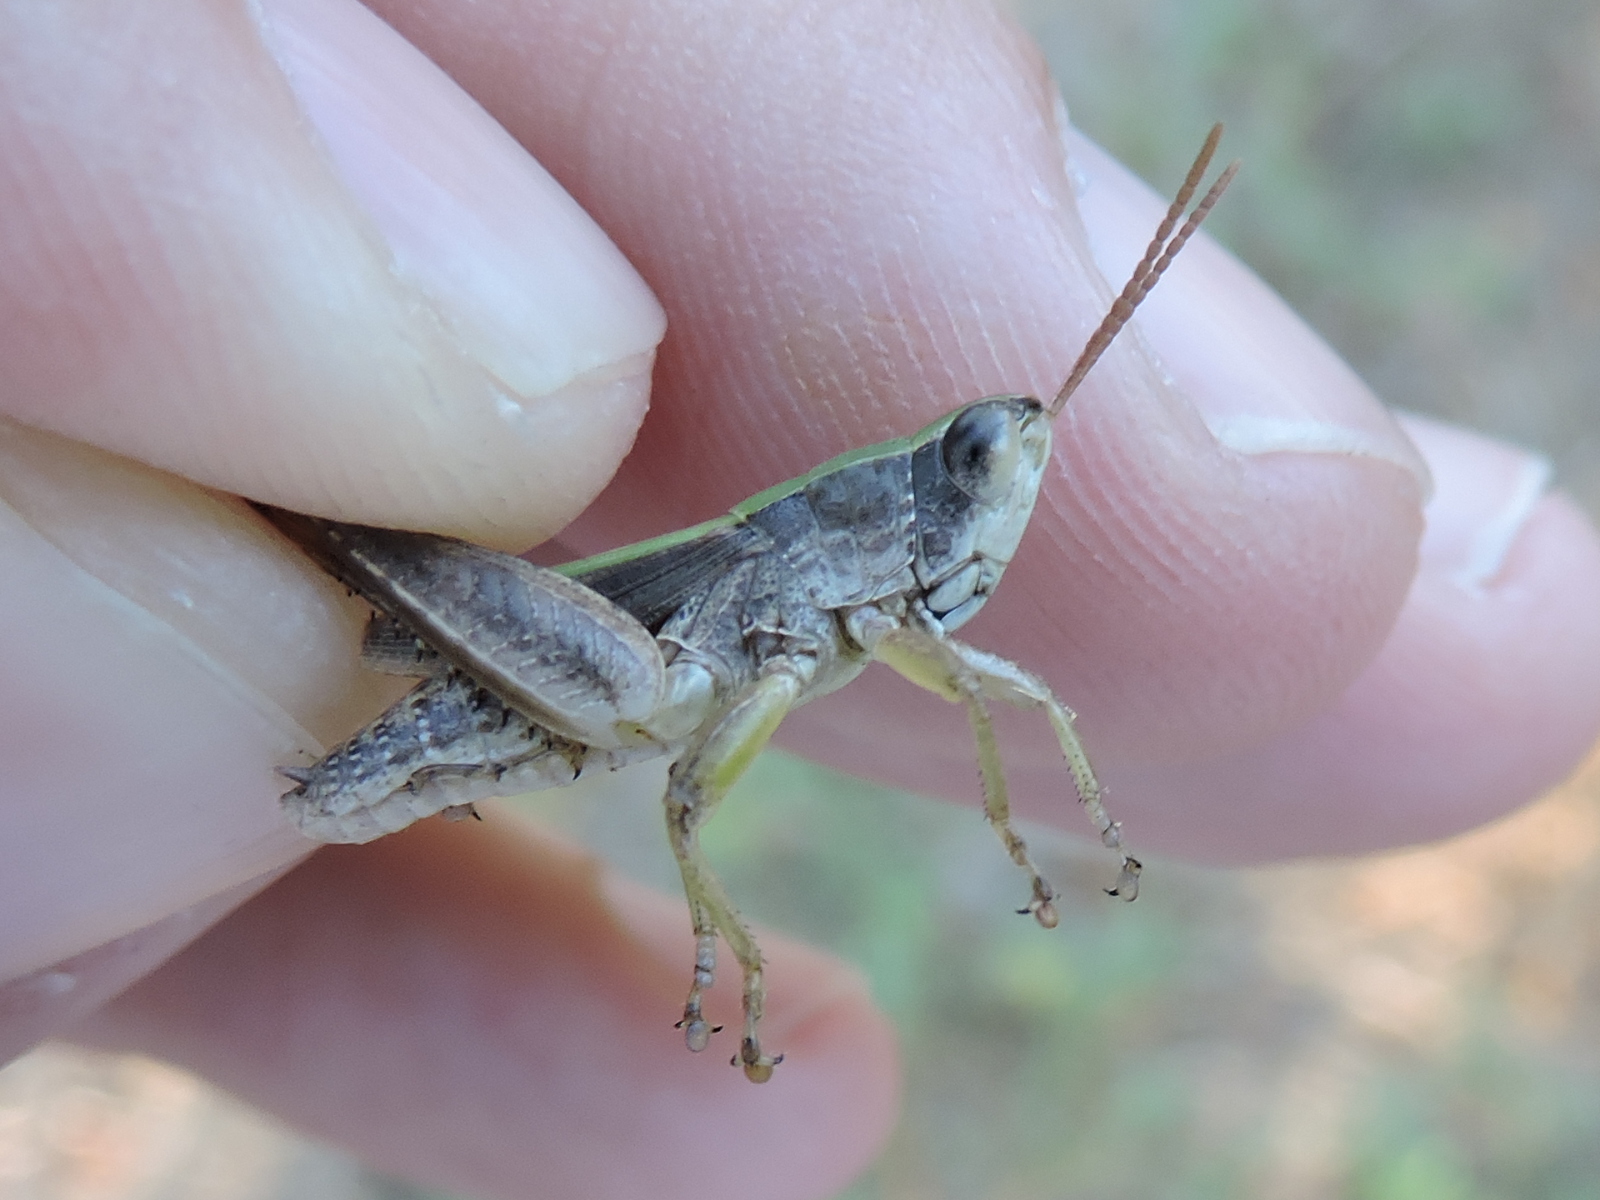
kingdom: Animalia
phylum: Arthropoda
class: Insecta
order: Orthoptera
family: Acrididae
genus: Dichromorpha
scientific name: Dichromorpha viridis
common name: Short-winged green grasshopper
